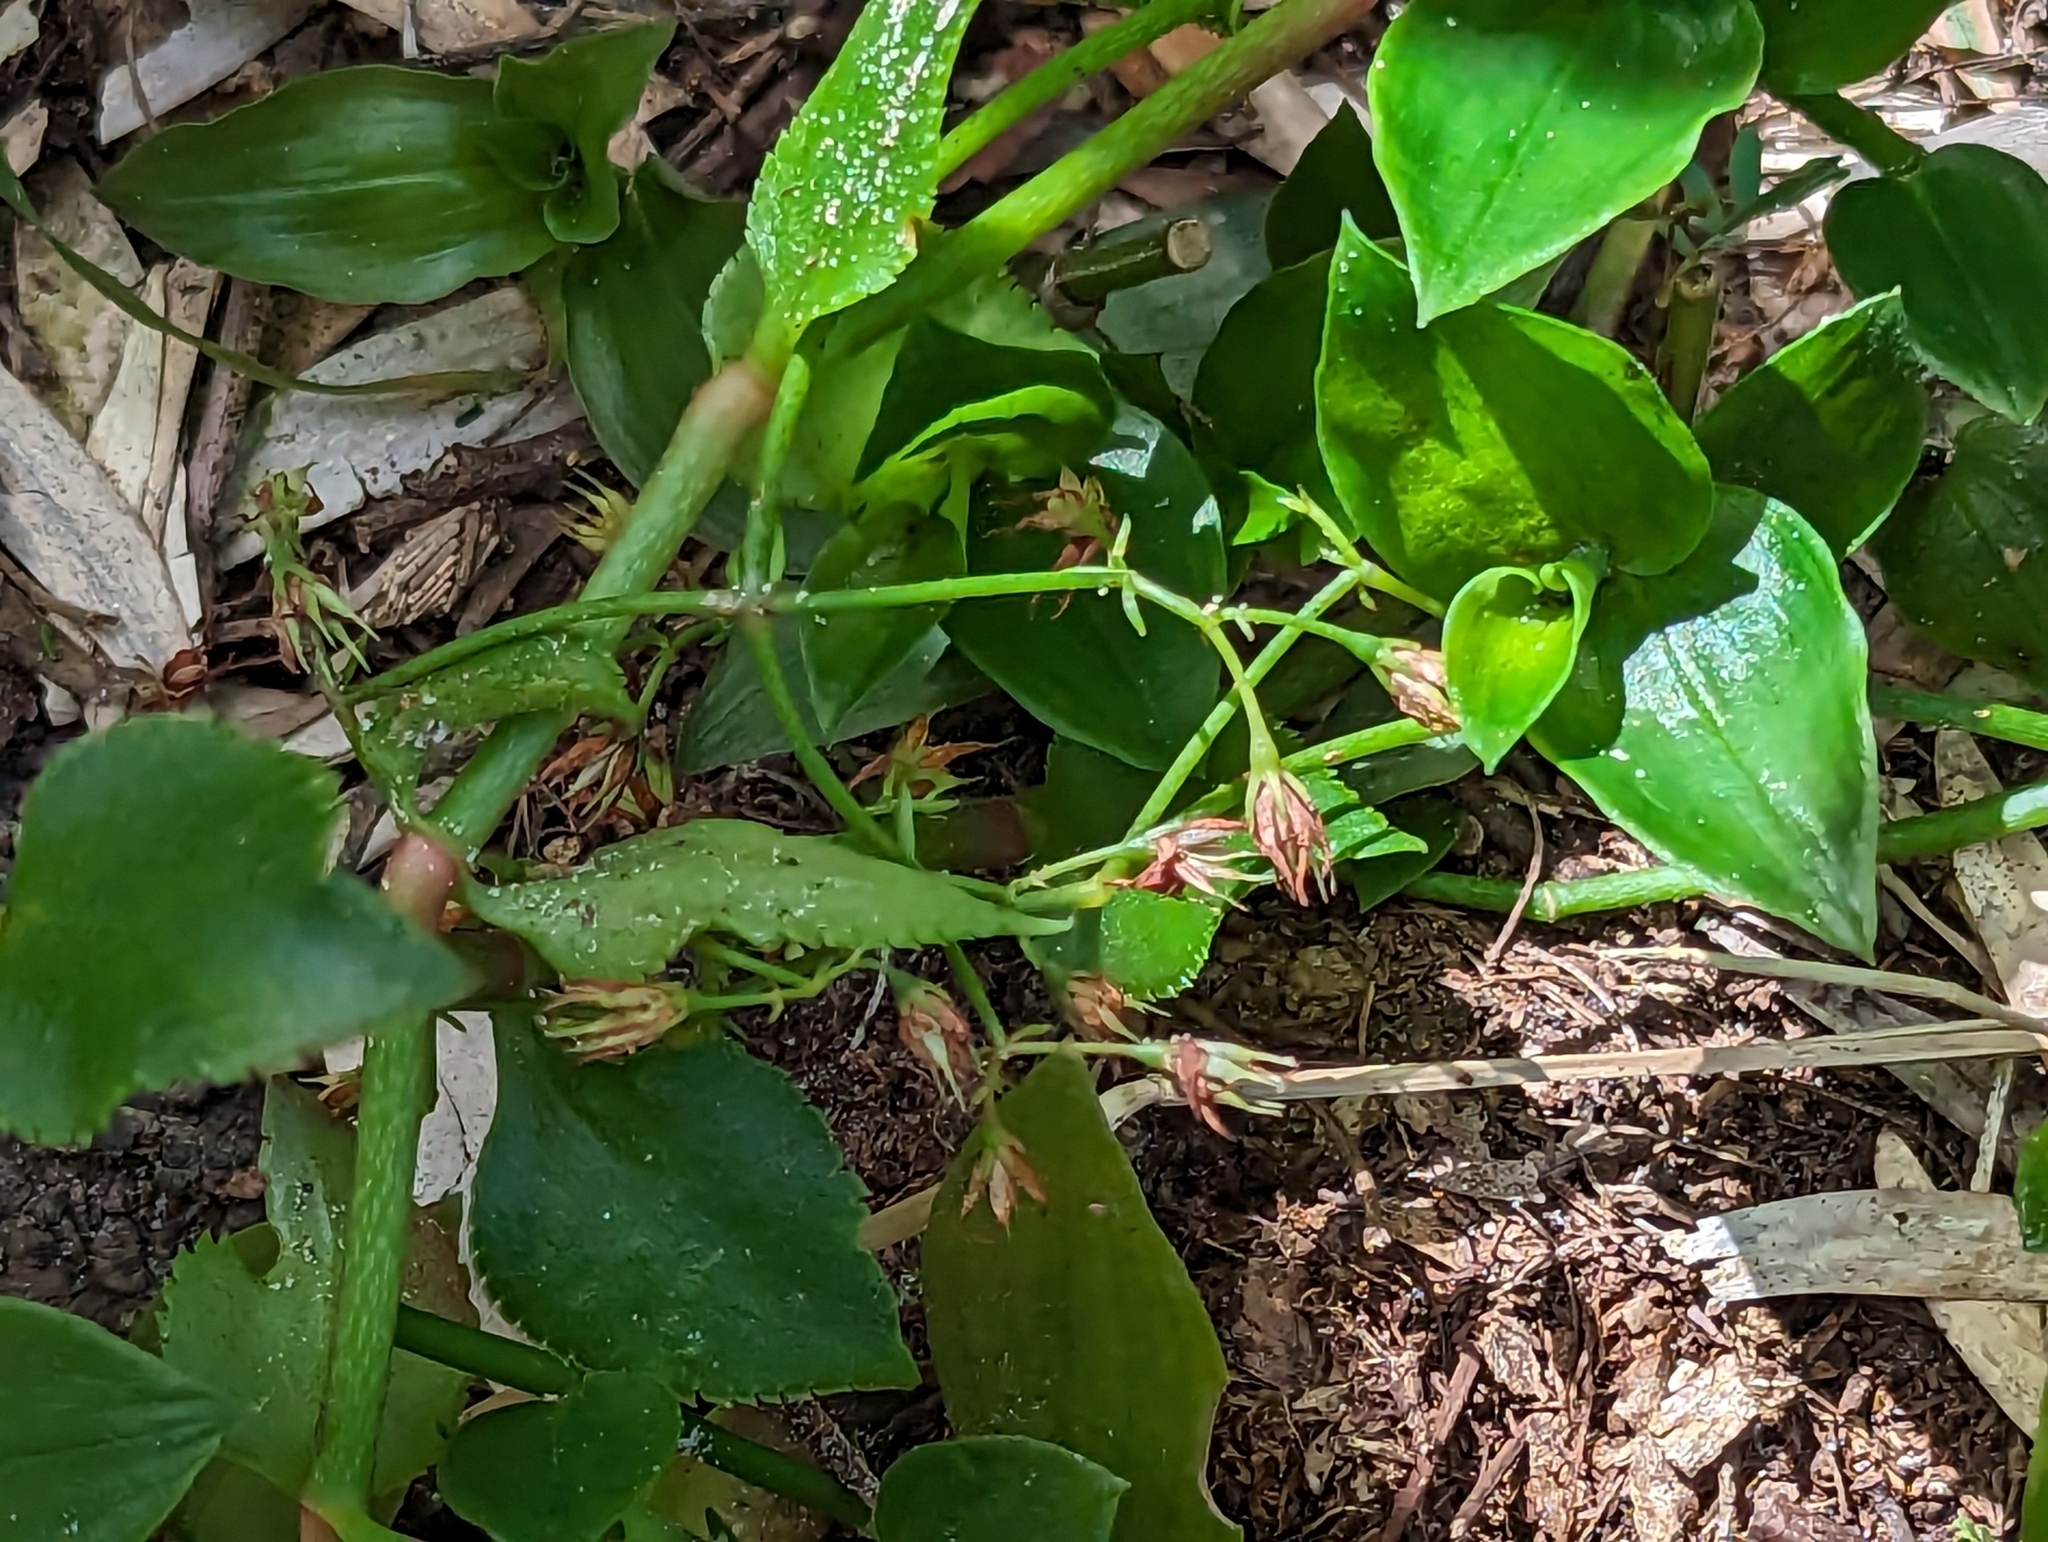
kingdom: Plantae
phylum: Tracheophyta
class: Magnoliopsida
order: Saxifragales
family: Crassulaceae
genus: Crassula
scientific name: Crassula sarmentosa
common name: Jade-tree
